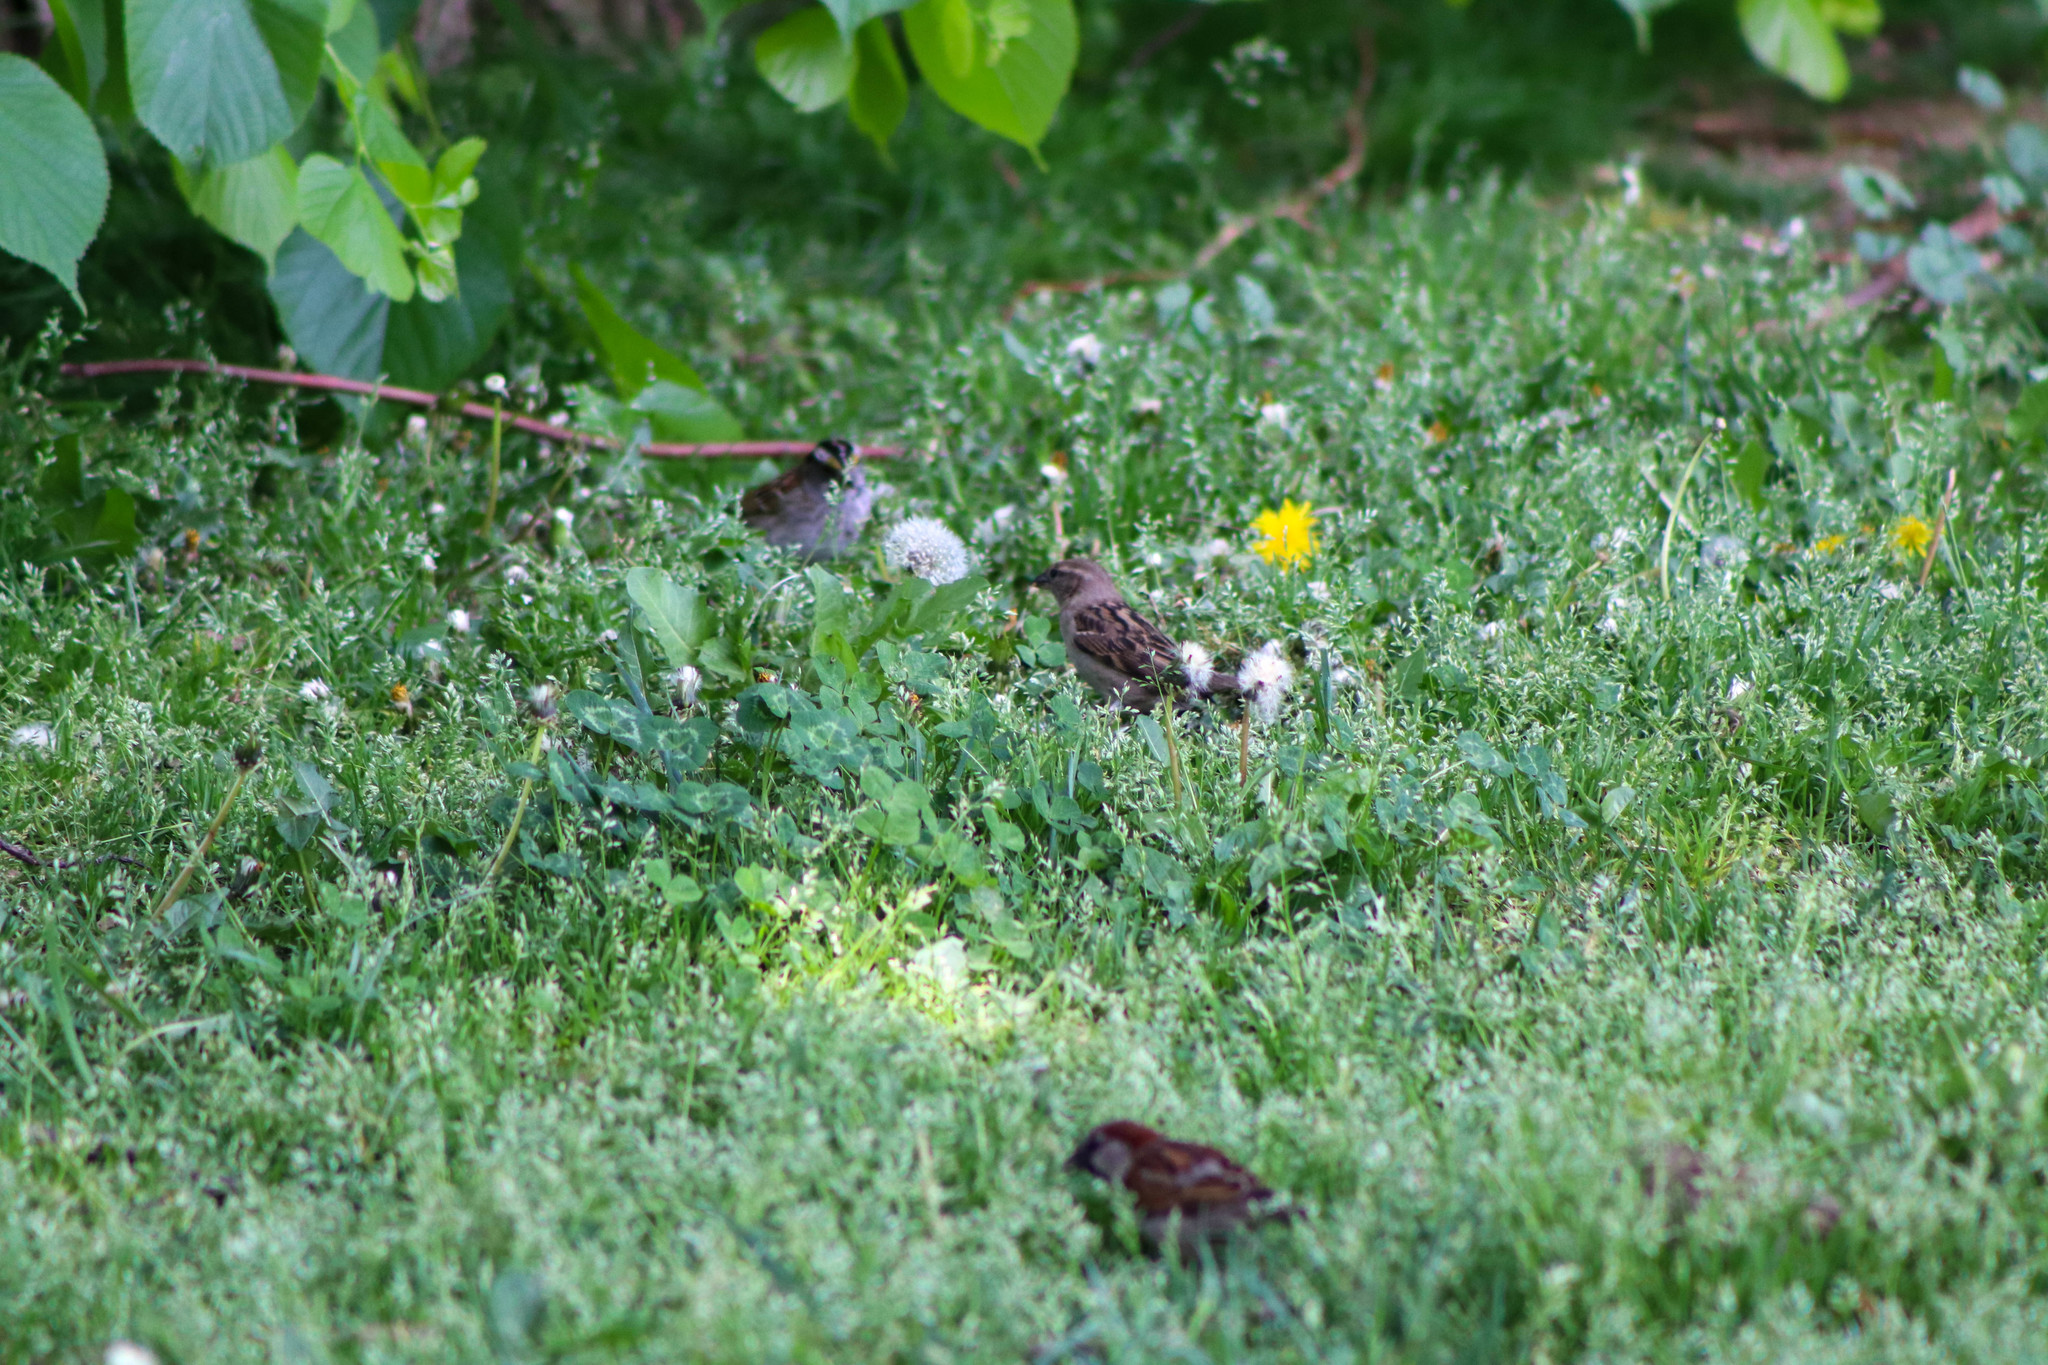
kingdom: Animalia
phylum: Chordata
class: Aves
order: Passeriformes
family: Passeridae
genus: Passer
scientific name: Passer domesticus
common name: House sparrow
